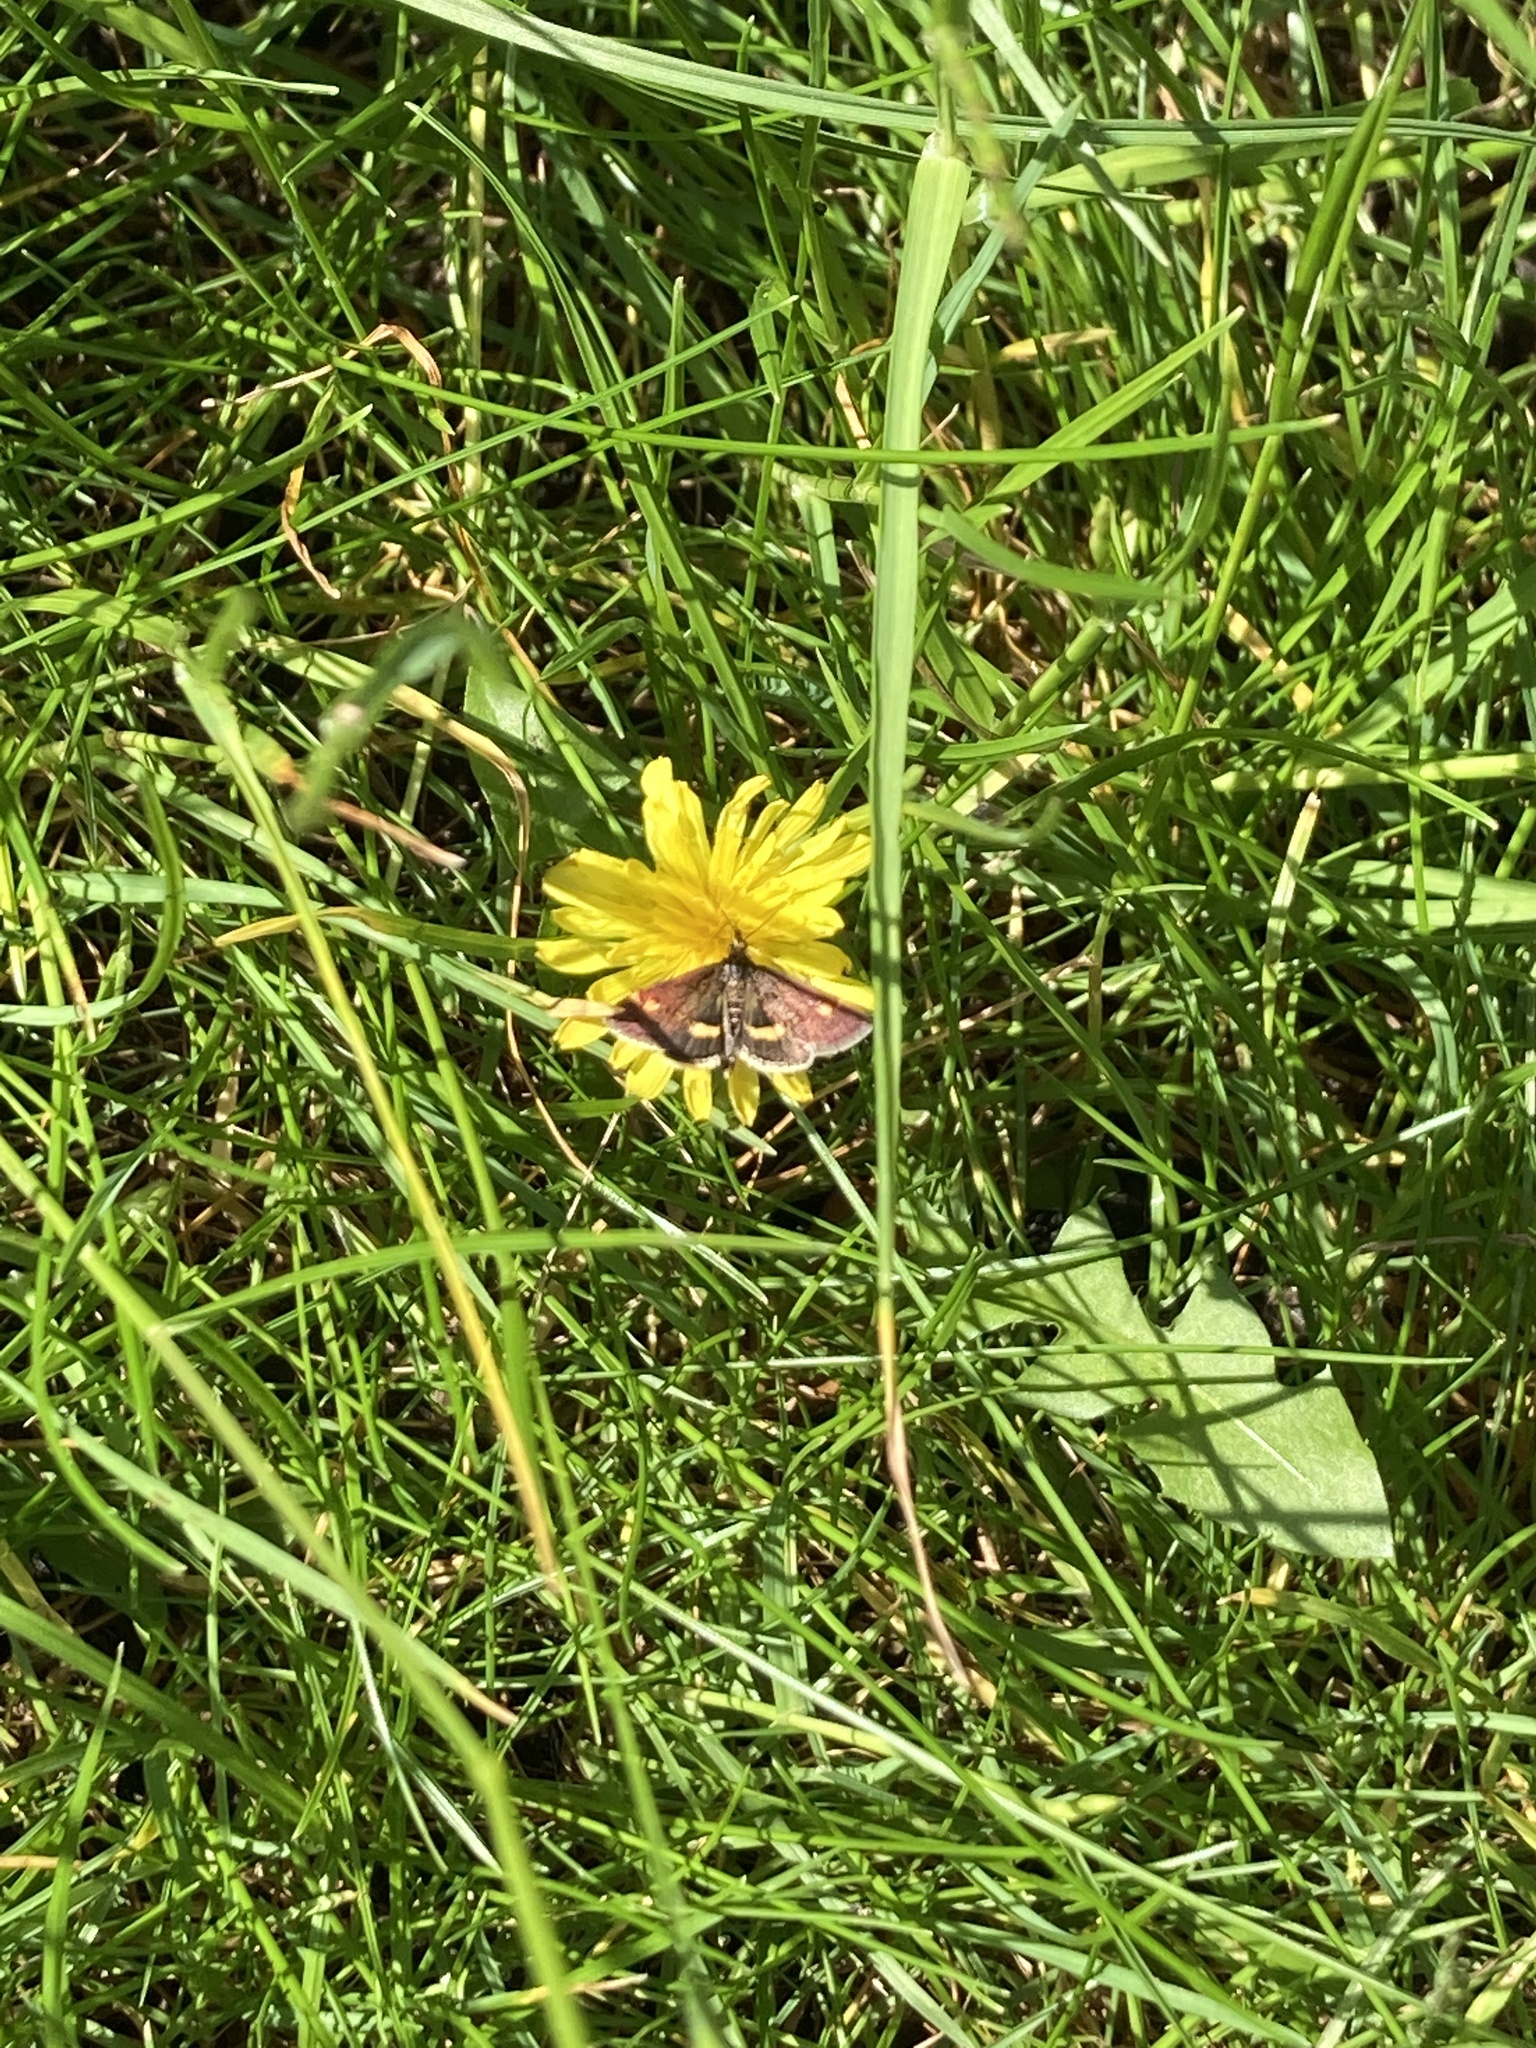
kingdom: Animalia
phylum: Arthropoda
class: Insecta
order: Lepidoptera
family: Crambidae
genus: Pyrausta
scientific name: Pyrausta aurata
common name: Small purple & gold
